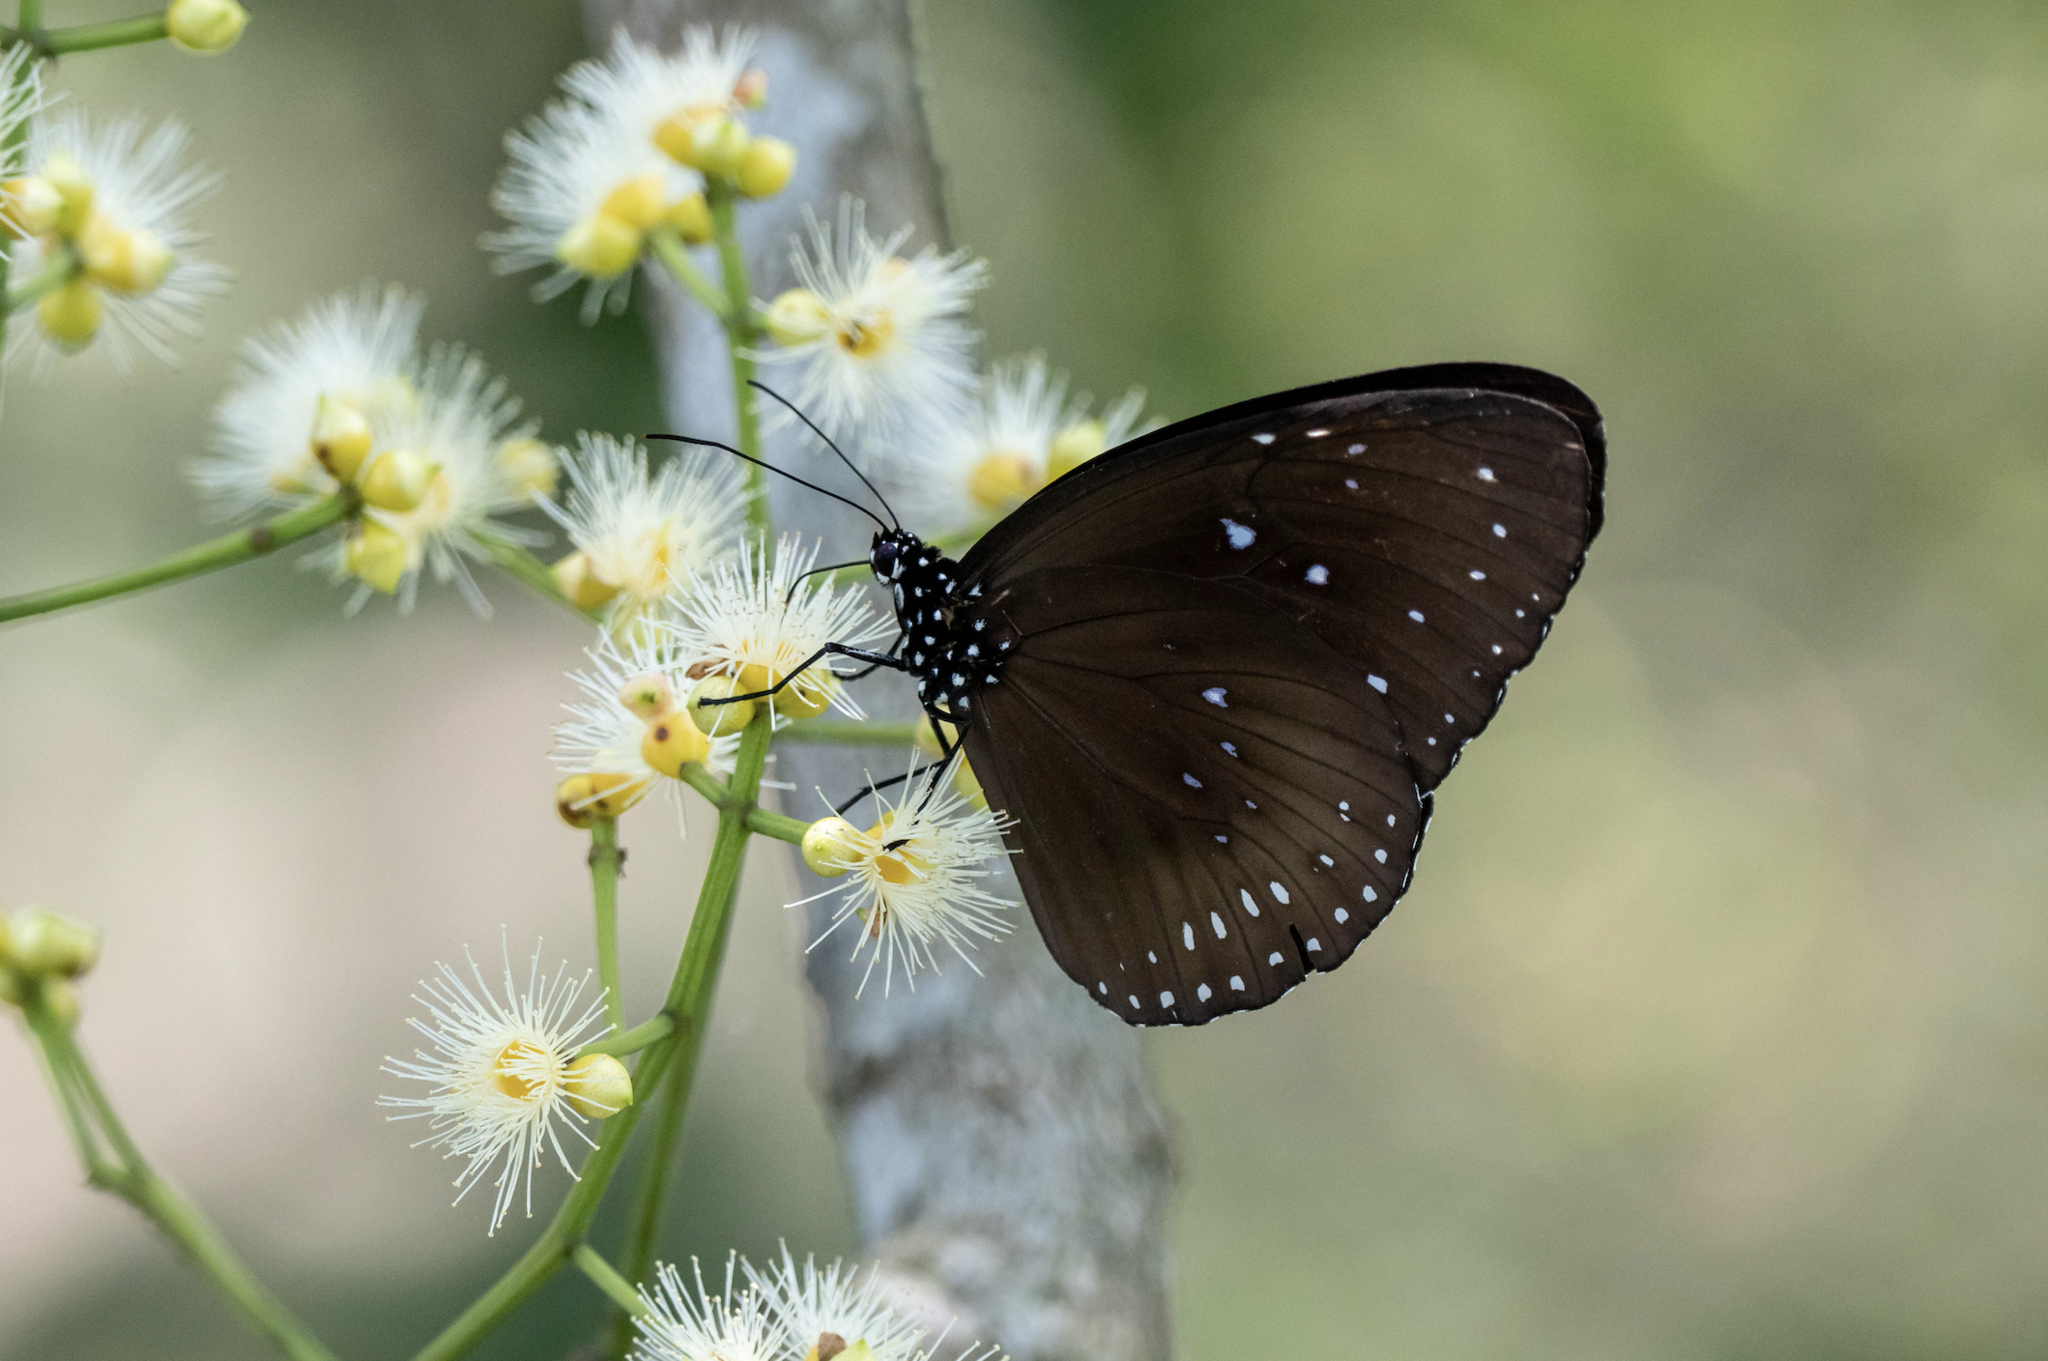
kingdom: Animalia
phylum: Arthropoda
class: Insecta
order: Lepidoptera
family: Nymphalidae
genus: Euploea
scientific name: Euploea midamus
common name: Blue-spotted crow butterfly
